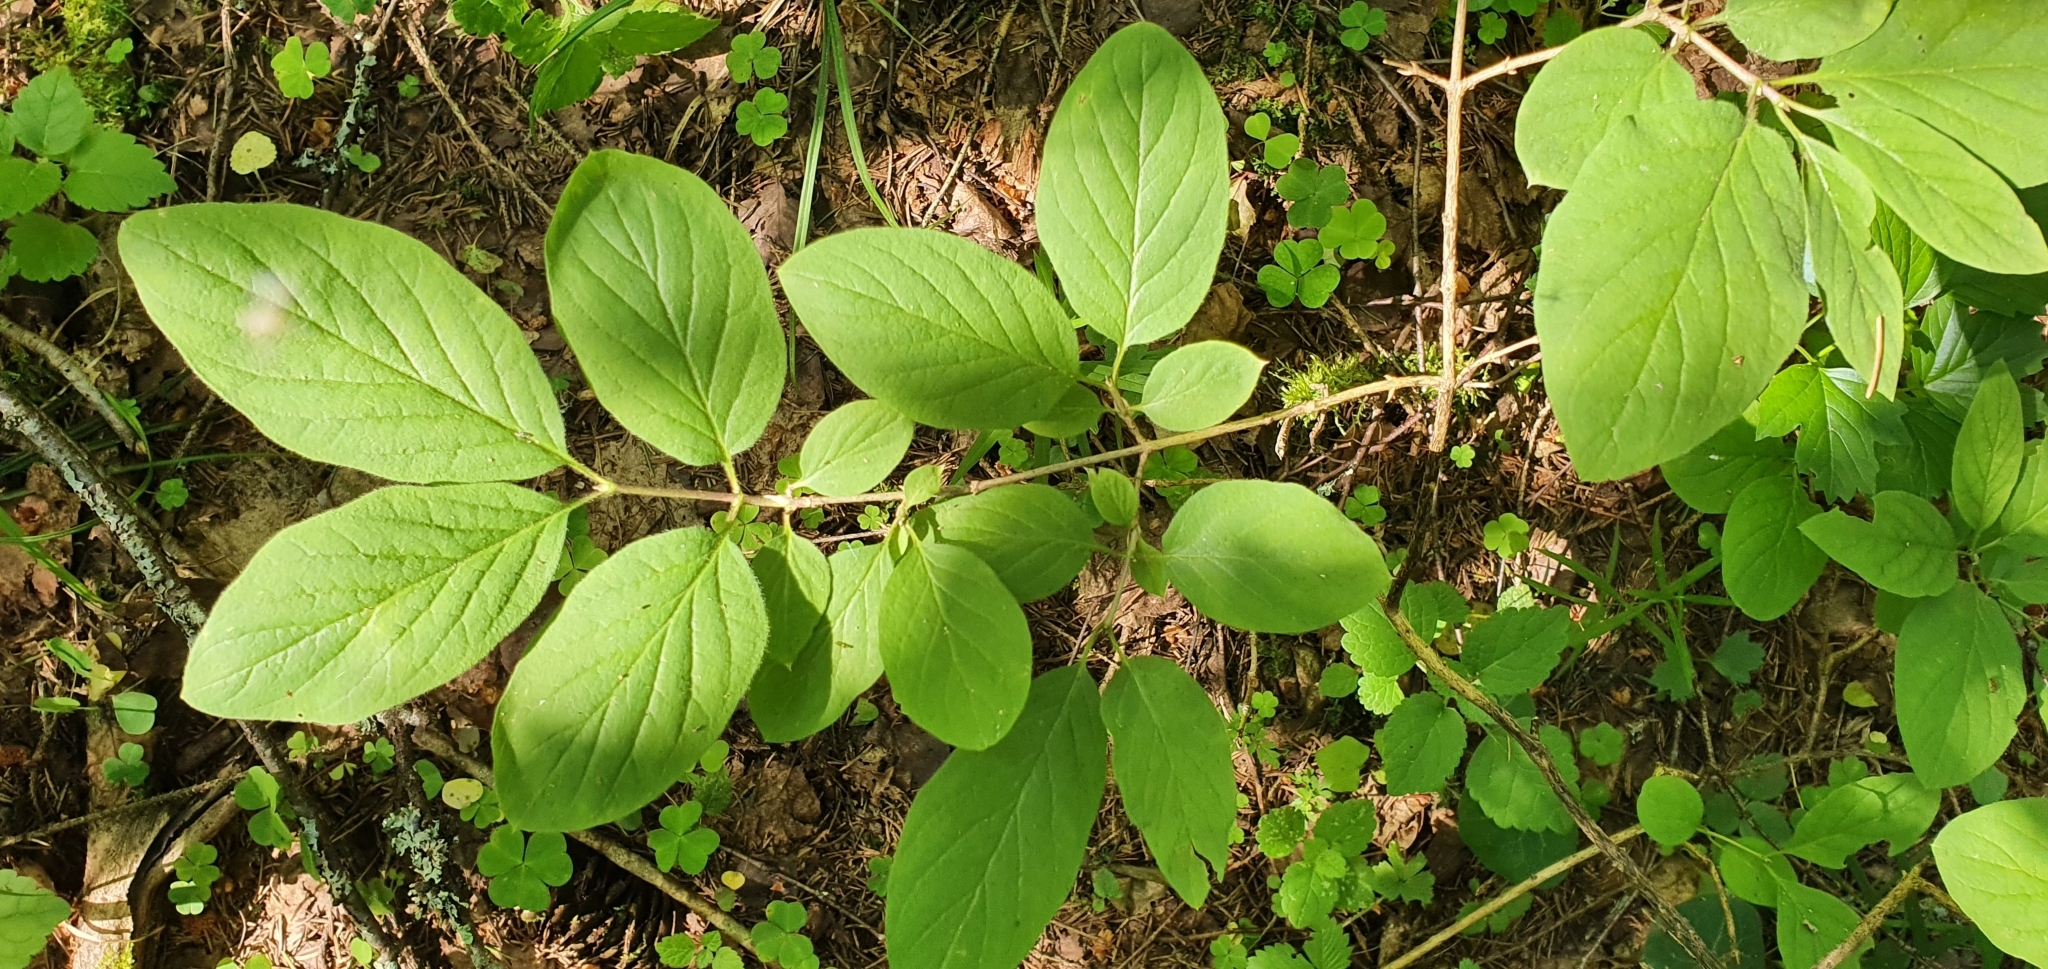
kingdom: Plantae
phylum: Tracheophyta
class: Magnoliopsida
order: Dipsacales
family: Caprifoliaceae
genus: Lonicera
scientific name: Lonicera xylosteum
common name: Fly honeysuckle
